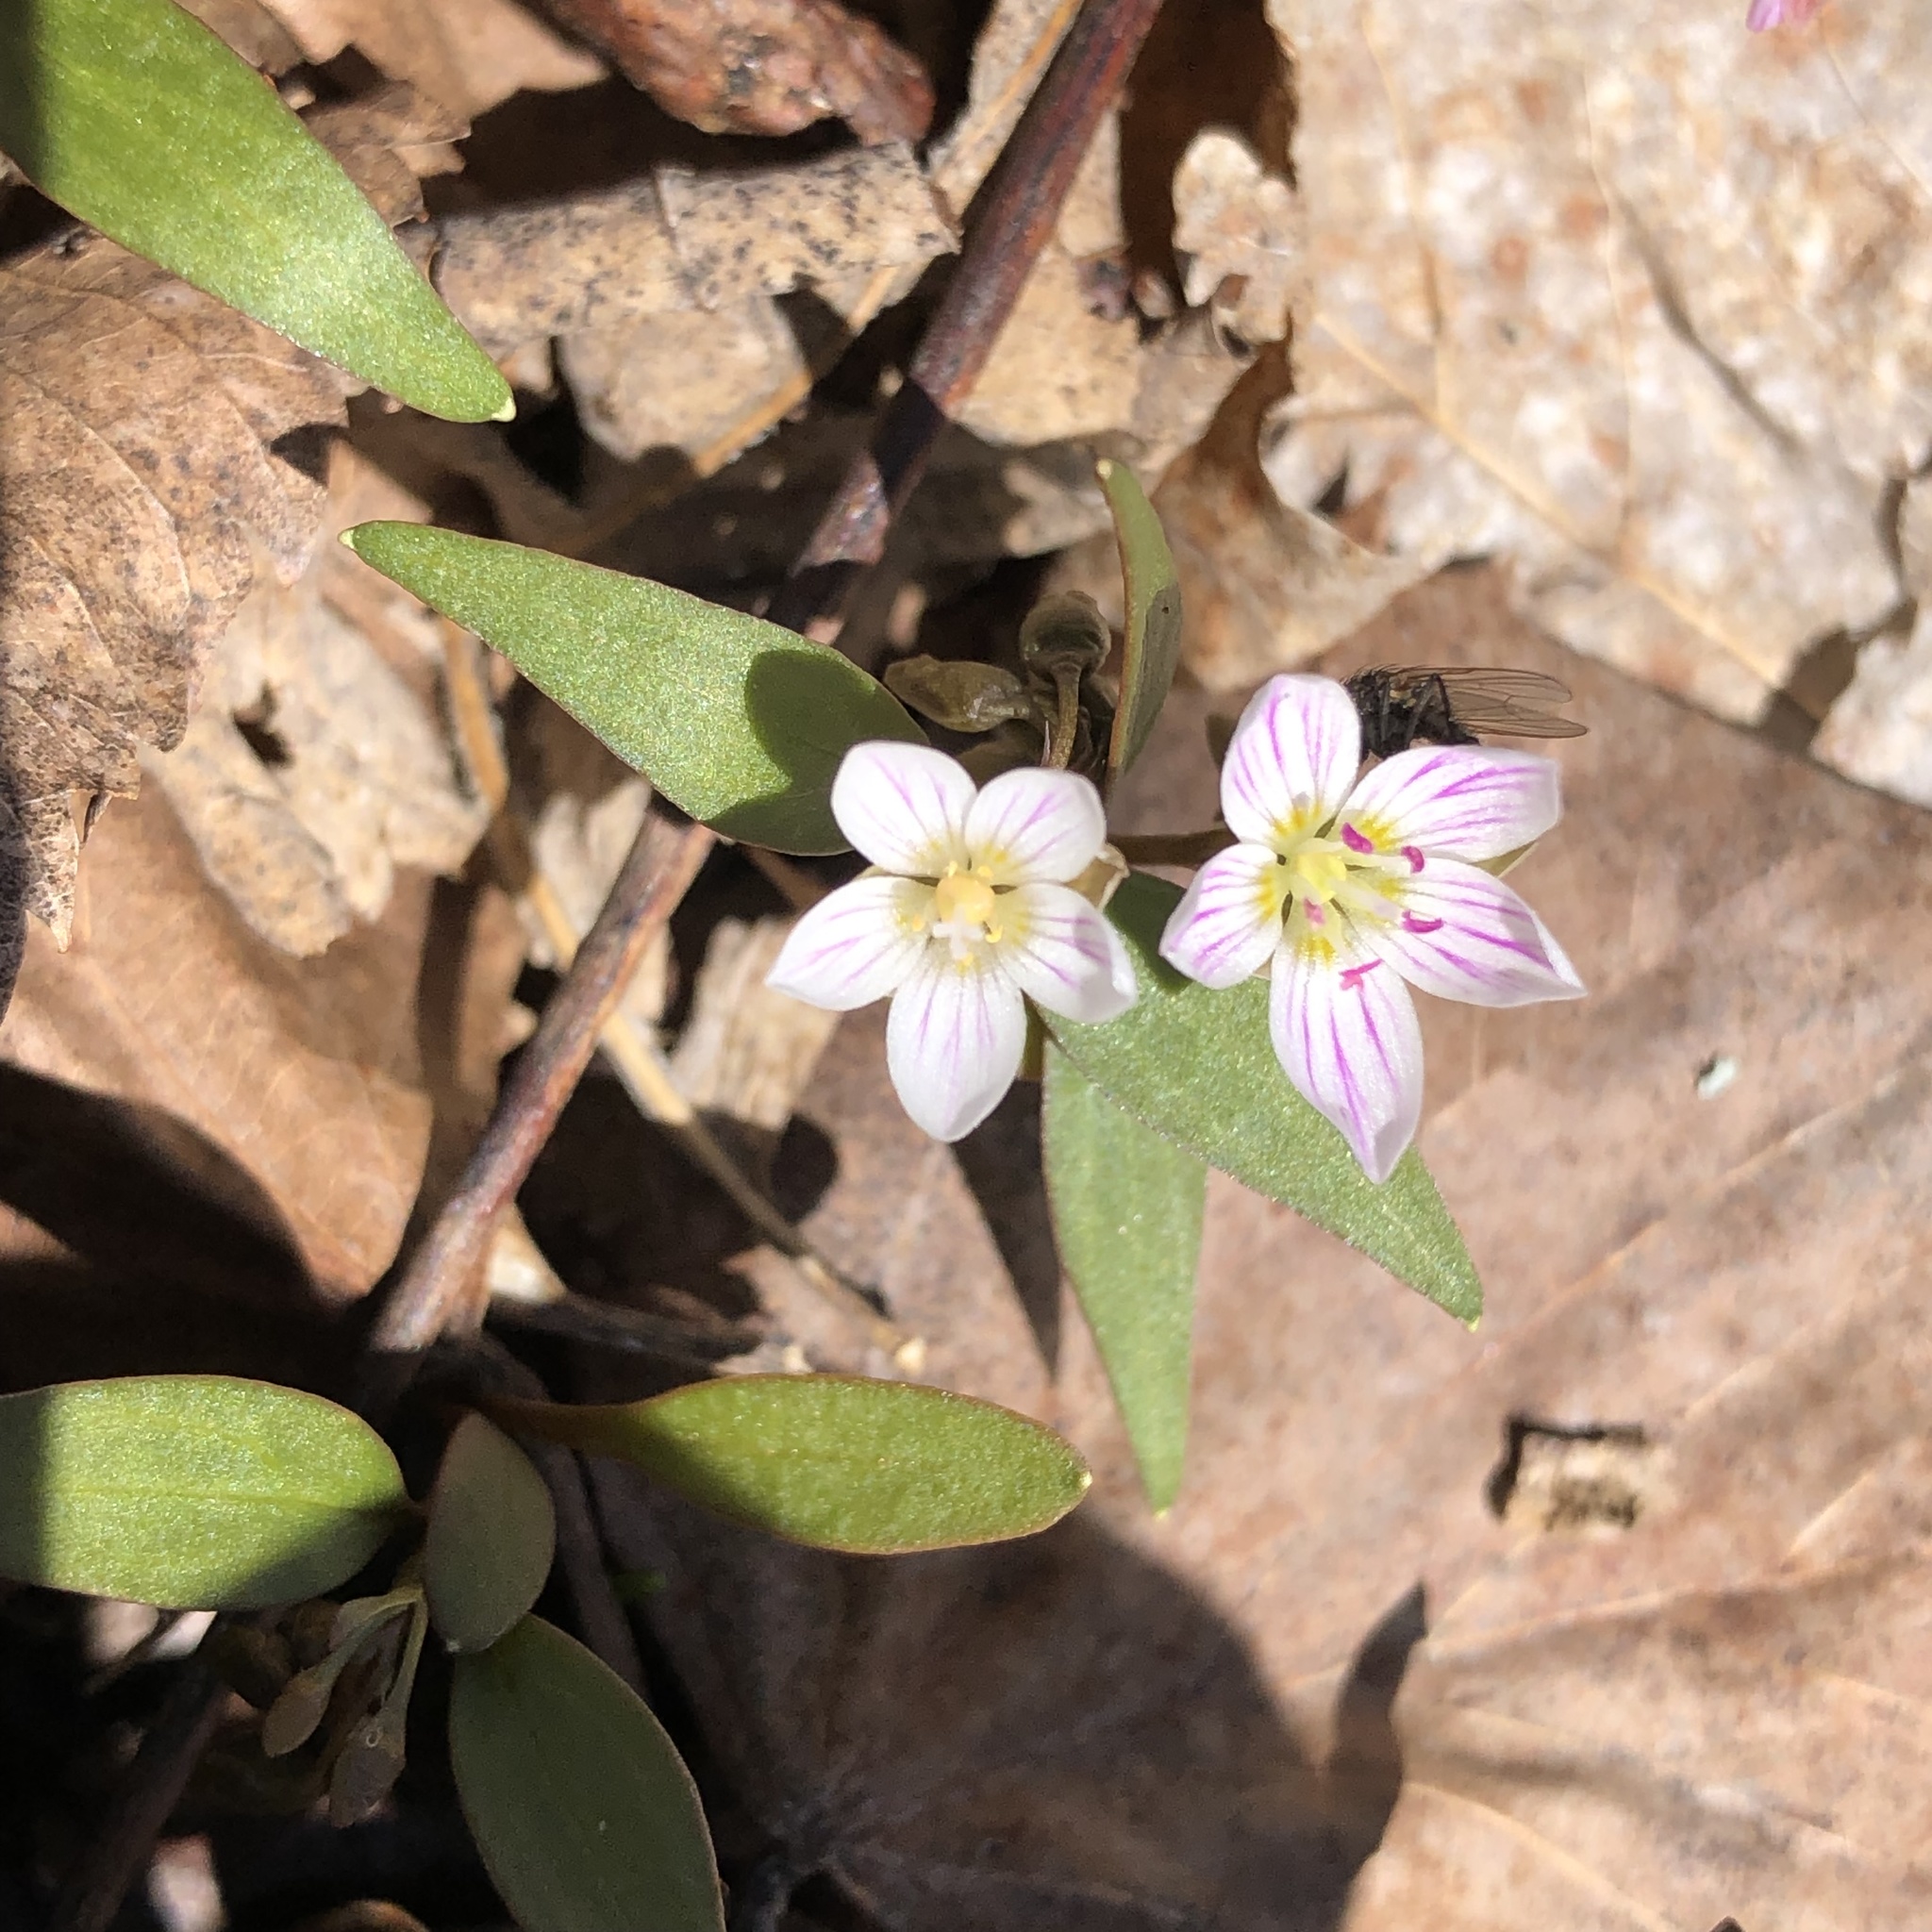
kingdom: Plantae
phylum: Tracheophyta
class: Magnoliopsida
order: Caryophyllales
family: Montiaceae
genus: Claytonia
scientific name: Claytonia caroliniana
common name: Carolina spring beauty
